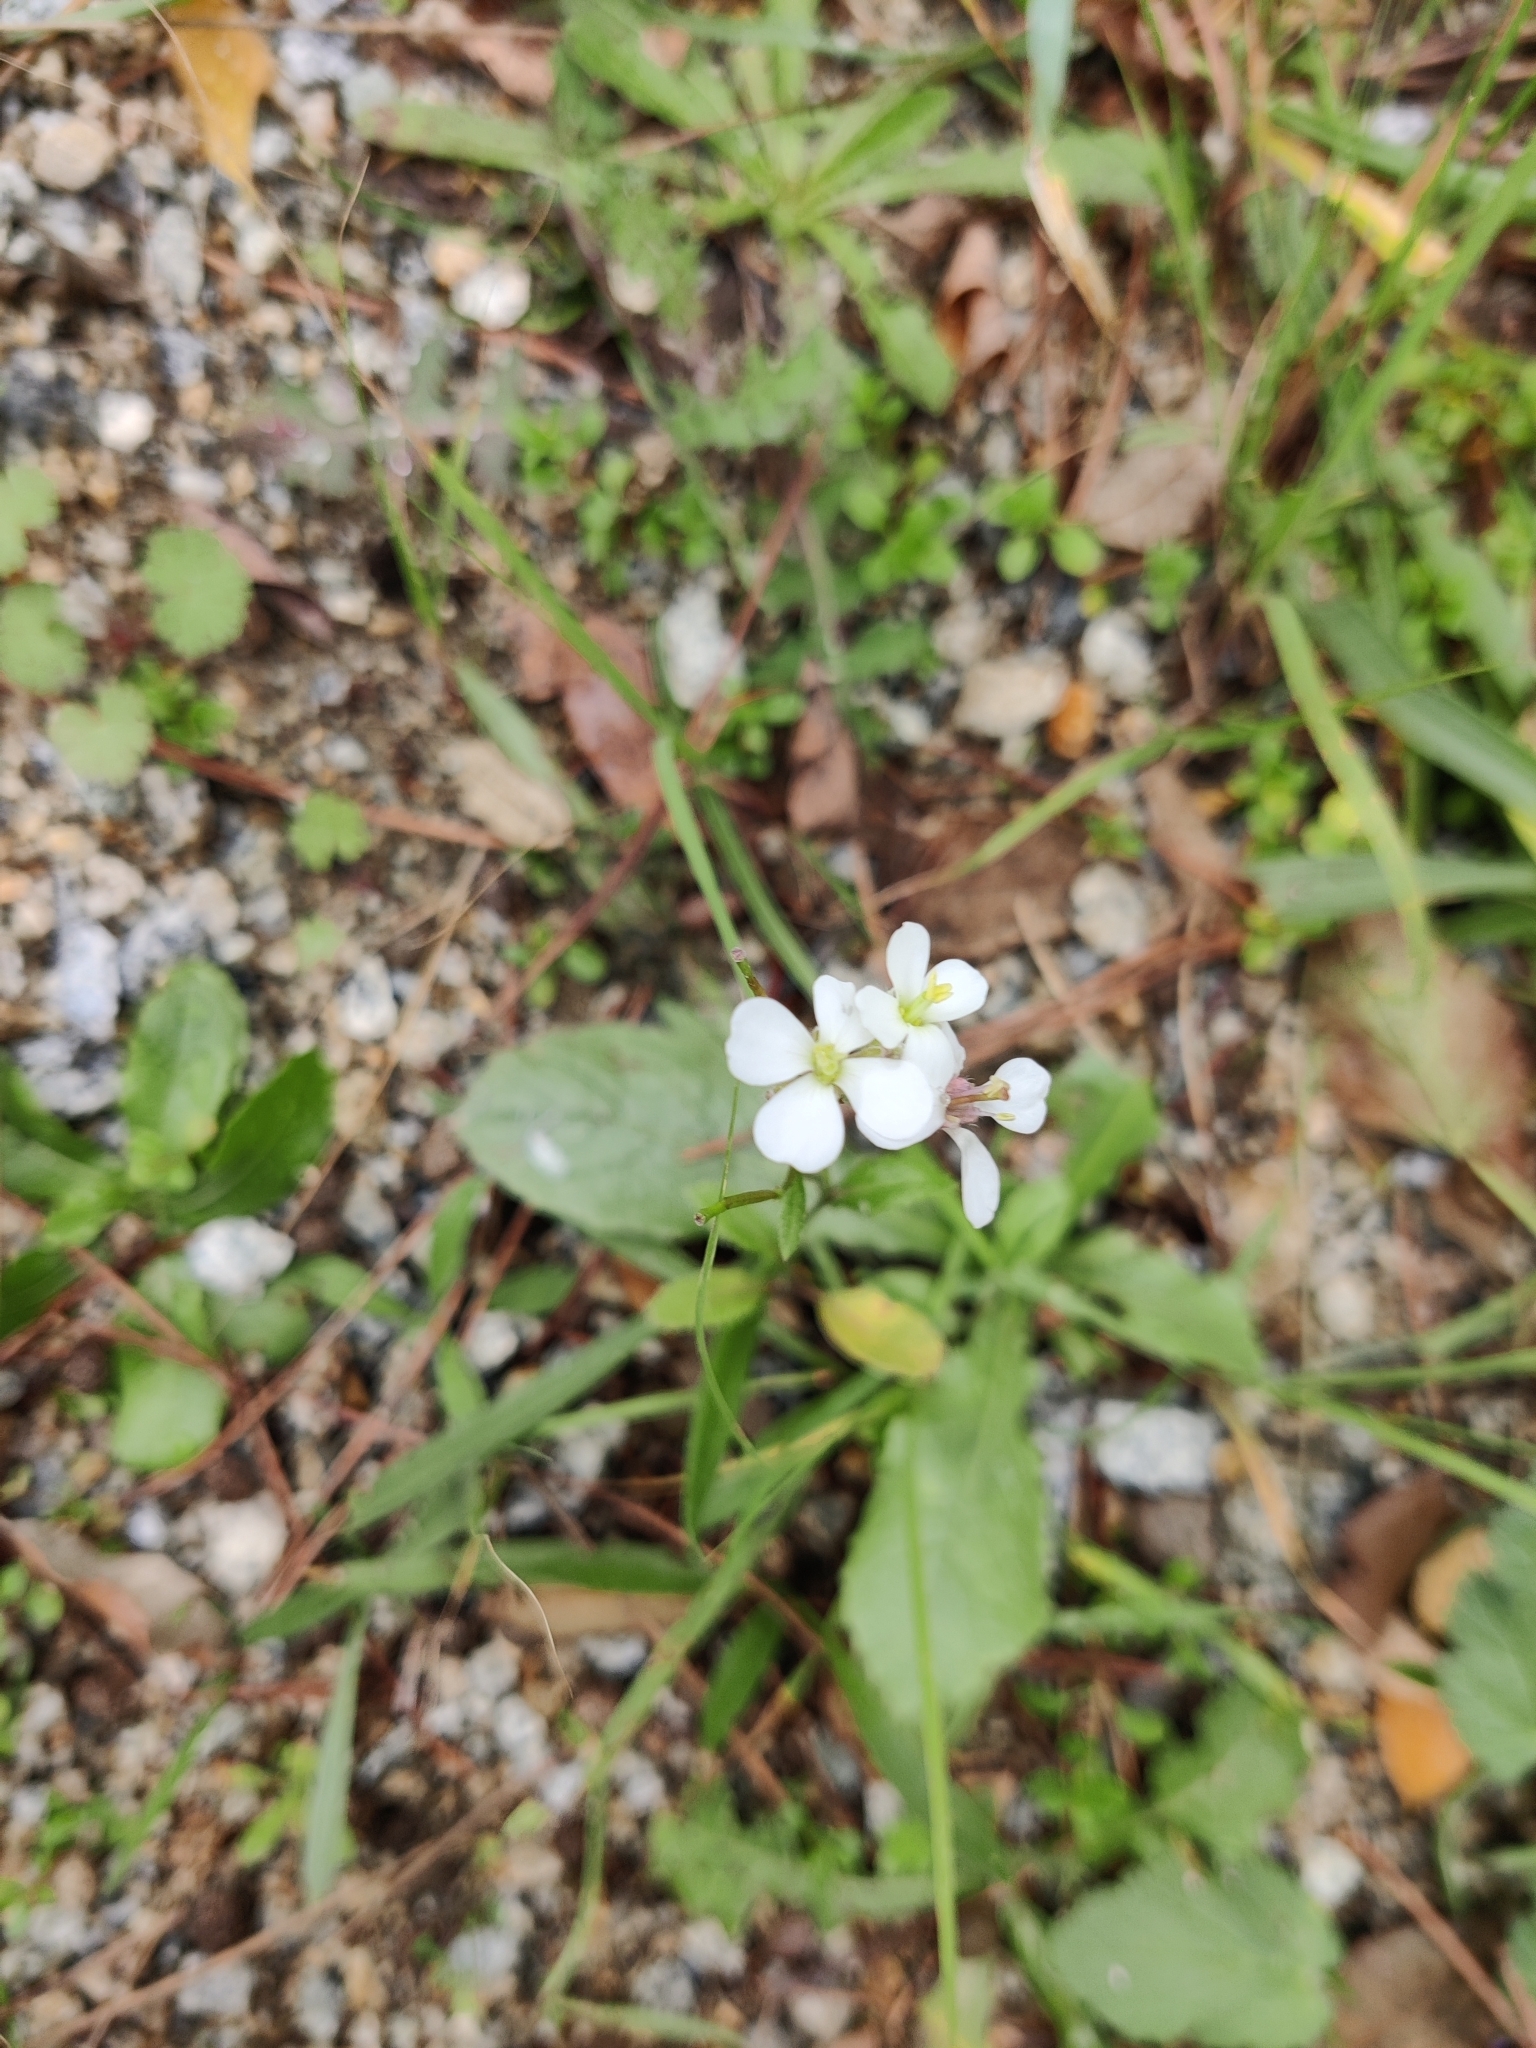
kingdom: Plantae
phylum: Tracheophyta
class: Magnoliopsida
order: Brassicales
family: Brassicaceae
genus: Diplotaxis
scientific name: Diplotaxis erucoides
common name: White rocket
